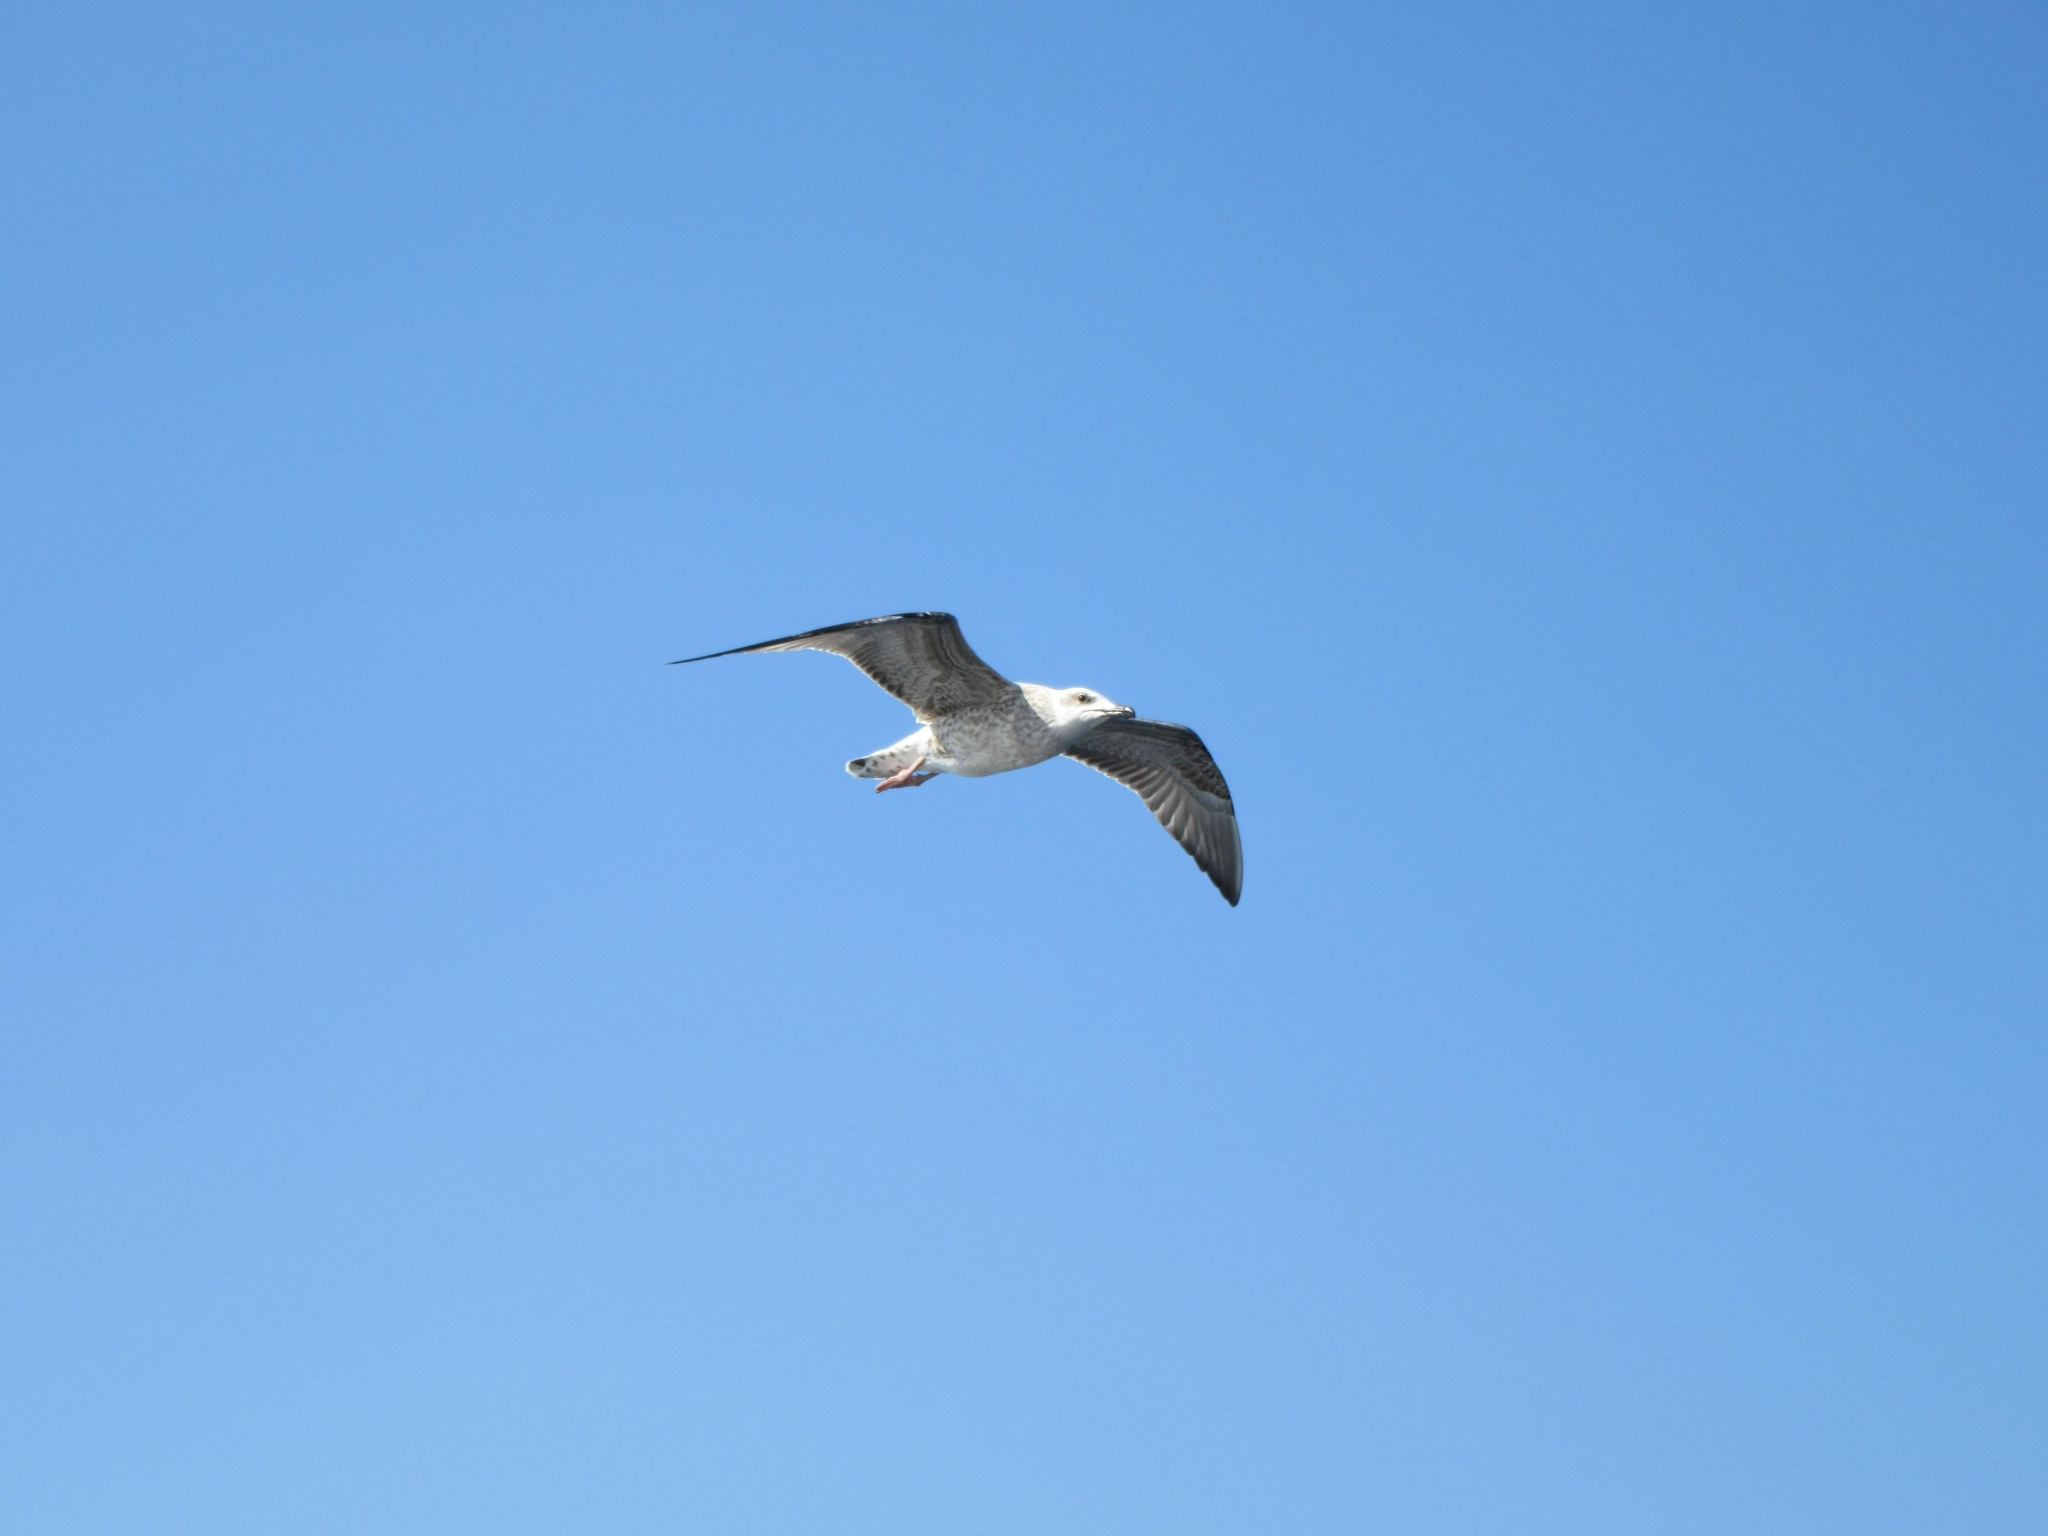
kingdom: Animalia
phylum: Chordata
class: Aves
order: Charadriiformes
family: Laridae
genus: Larus
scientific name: Larus michahellis
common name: Yellow-legged gull
